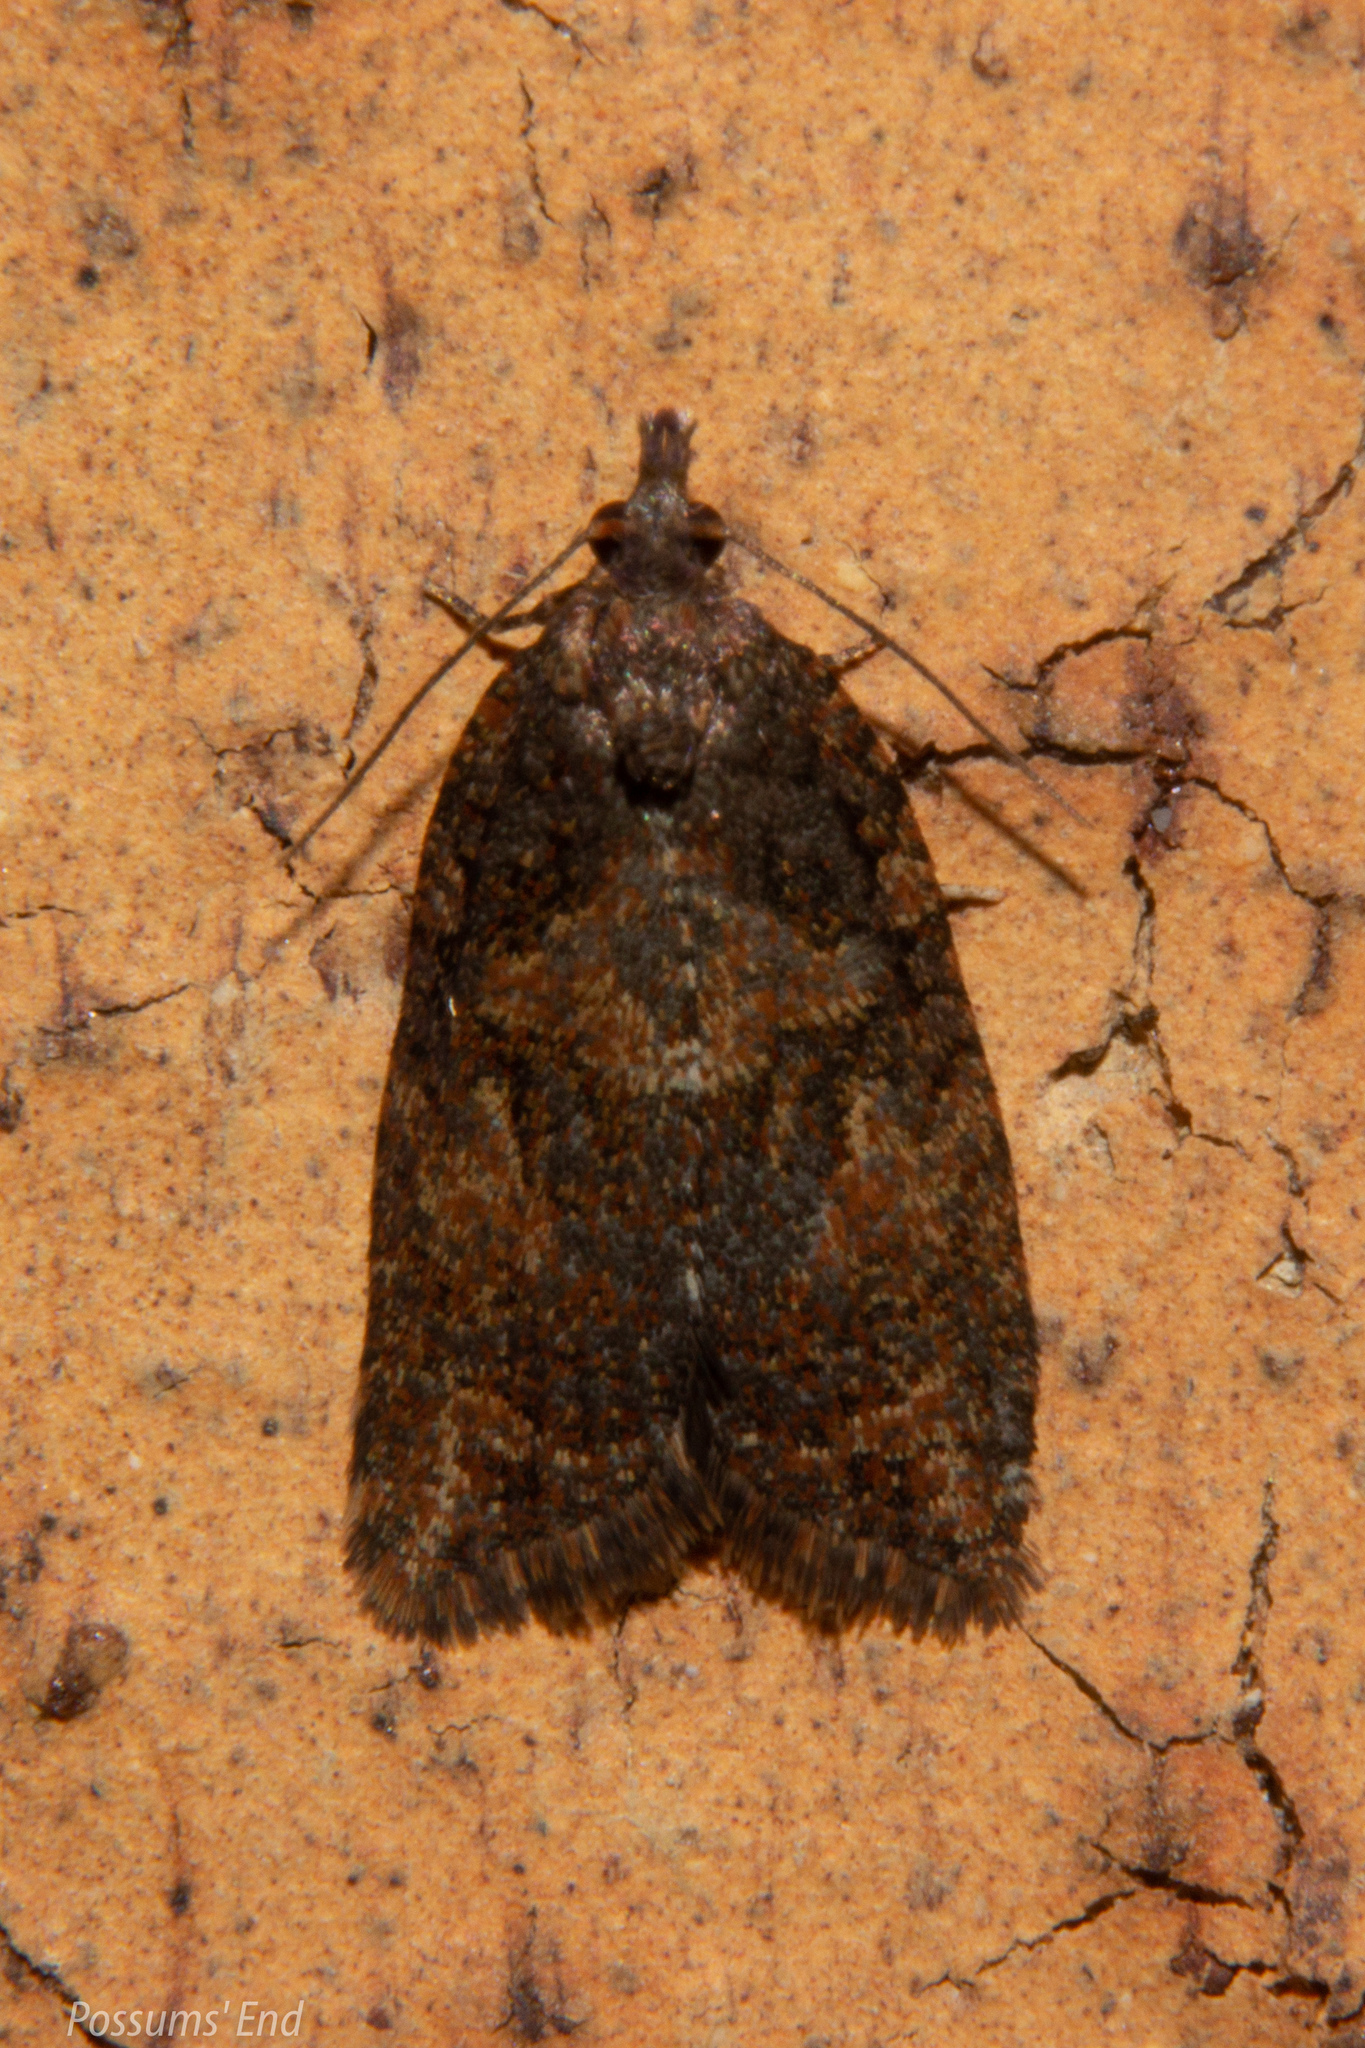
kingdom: Animalia
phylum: Arthropoda
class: Insecta
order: Lepidoptera
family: Tortricidae
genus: Capua
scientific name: Capua intractana
